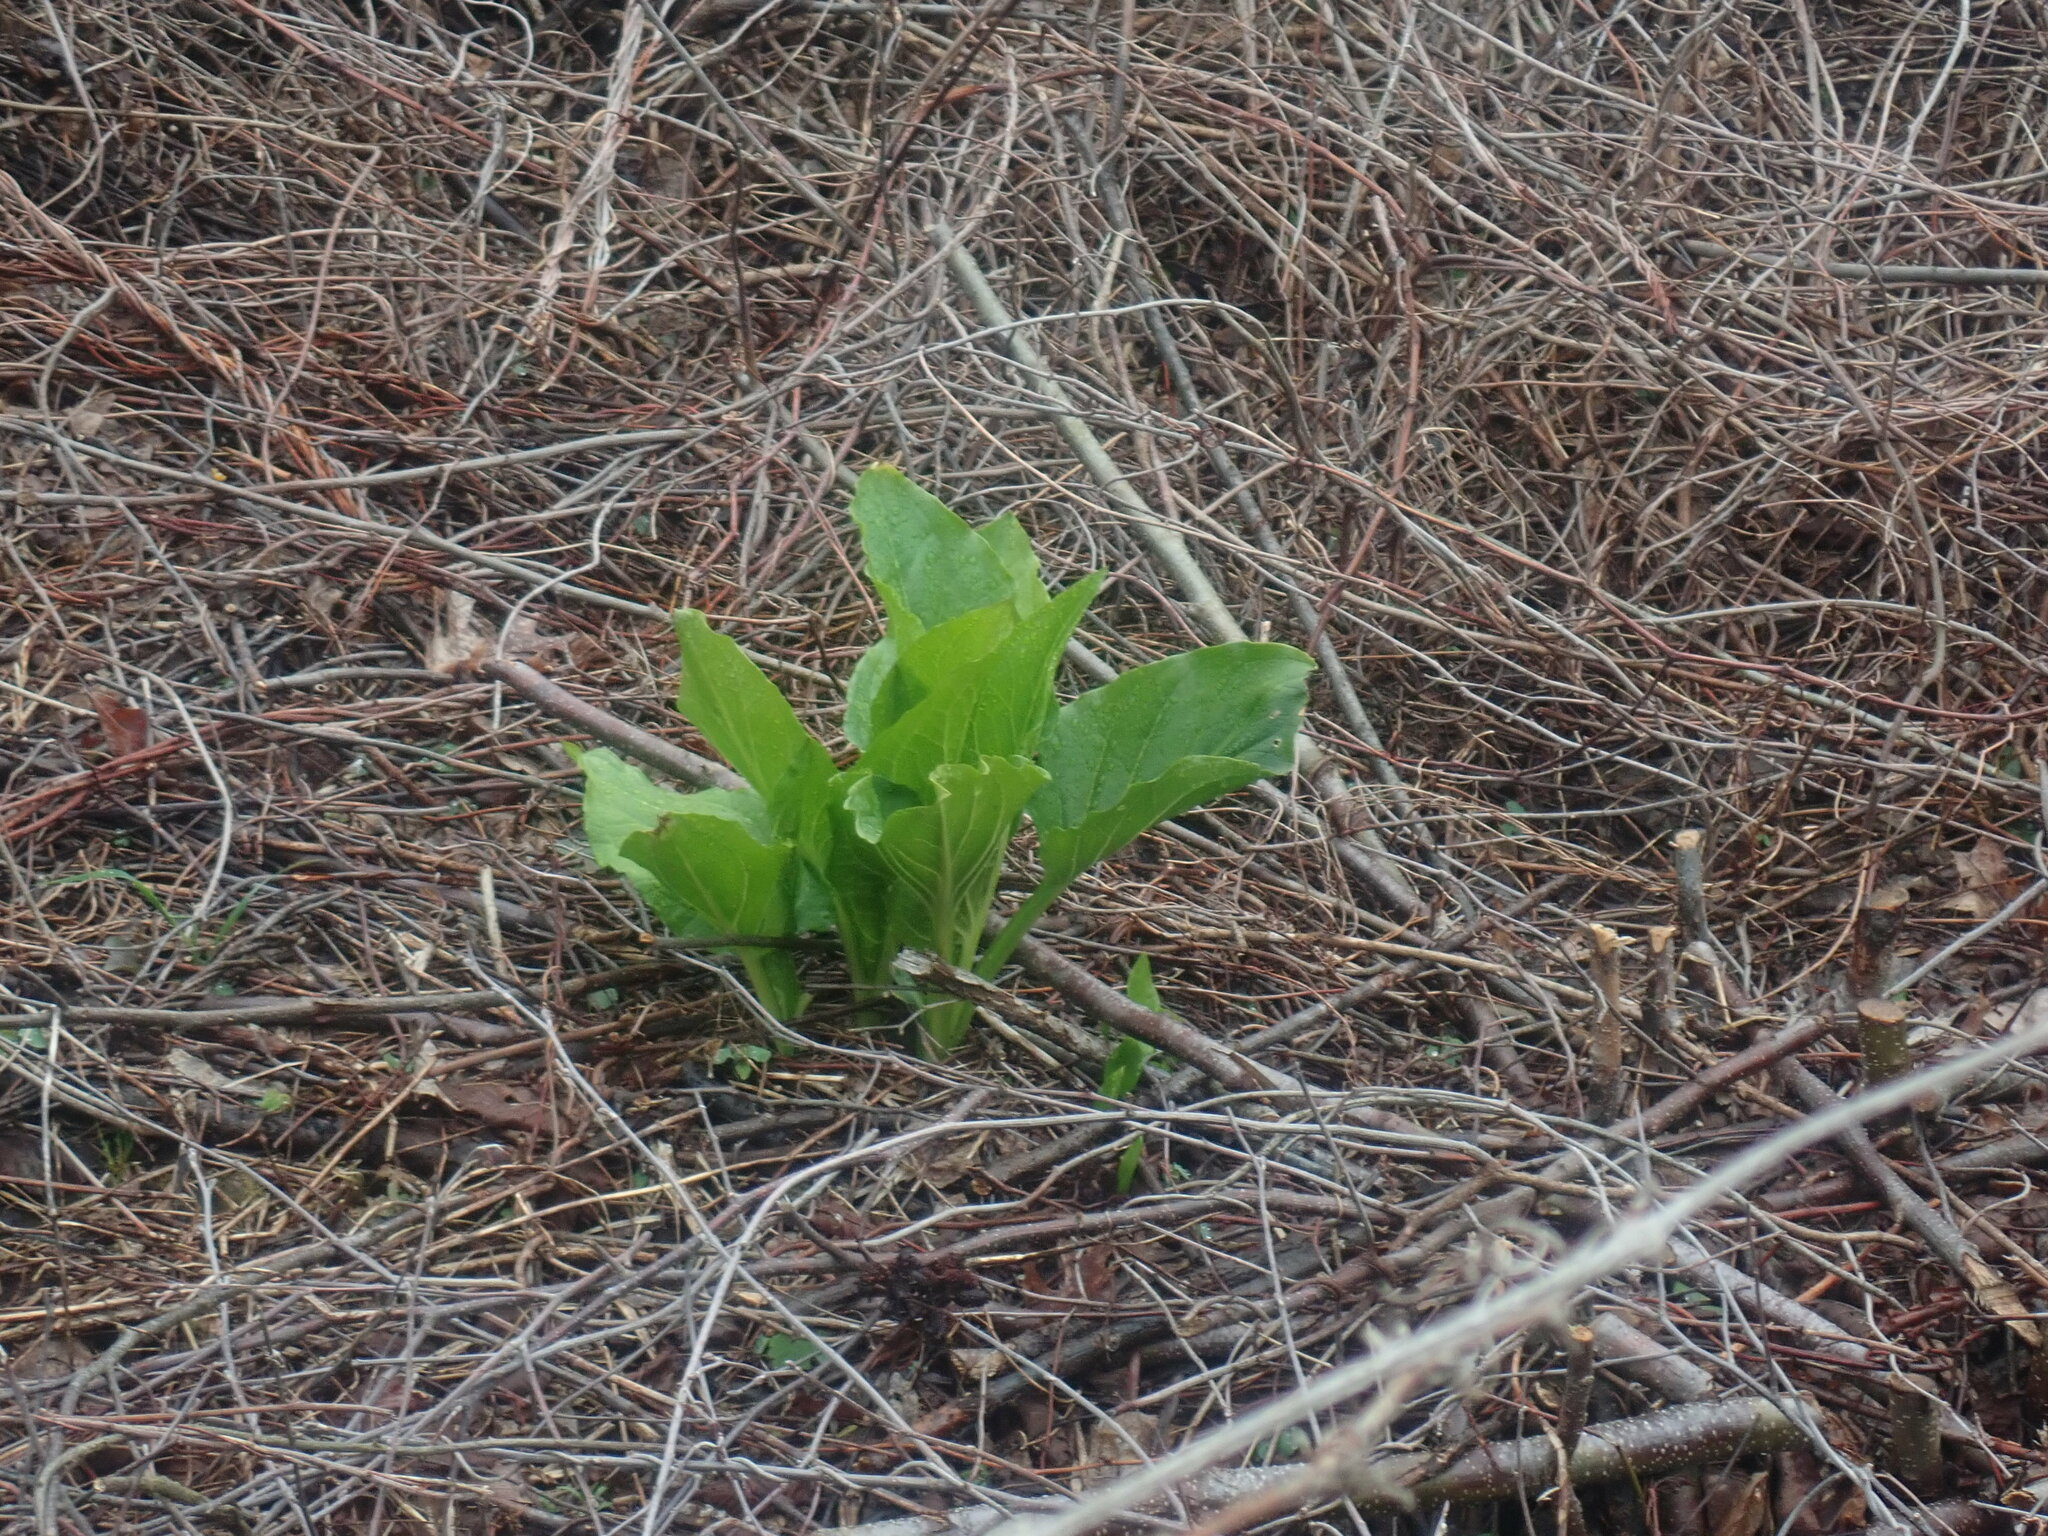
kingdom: Plantae
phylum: Tracheophyta
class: Liliopsida
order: Alismatales
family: Araceae
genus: Symplocarpus
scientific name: Symplocarpus foetidus
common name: Eastern skunk cabbage
